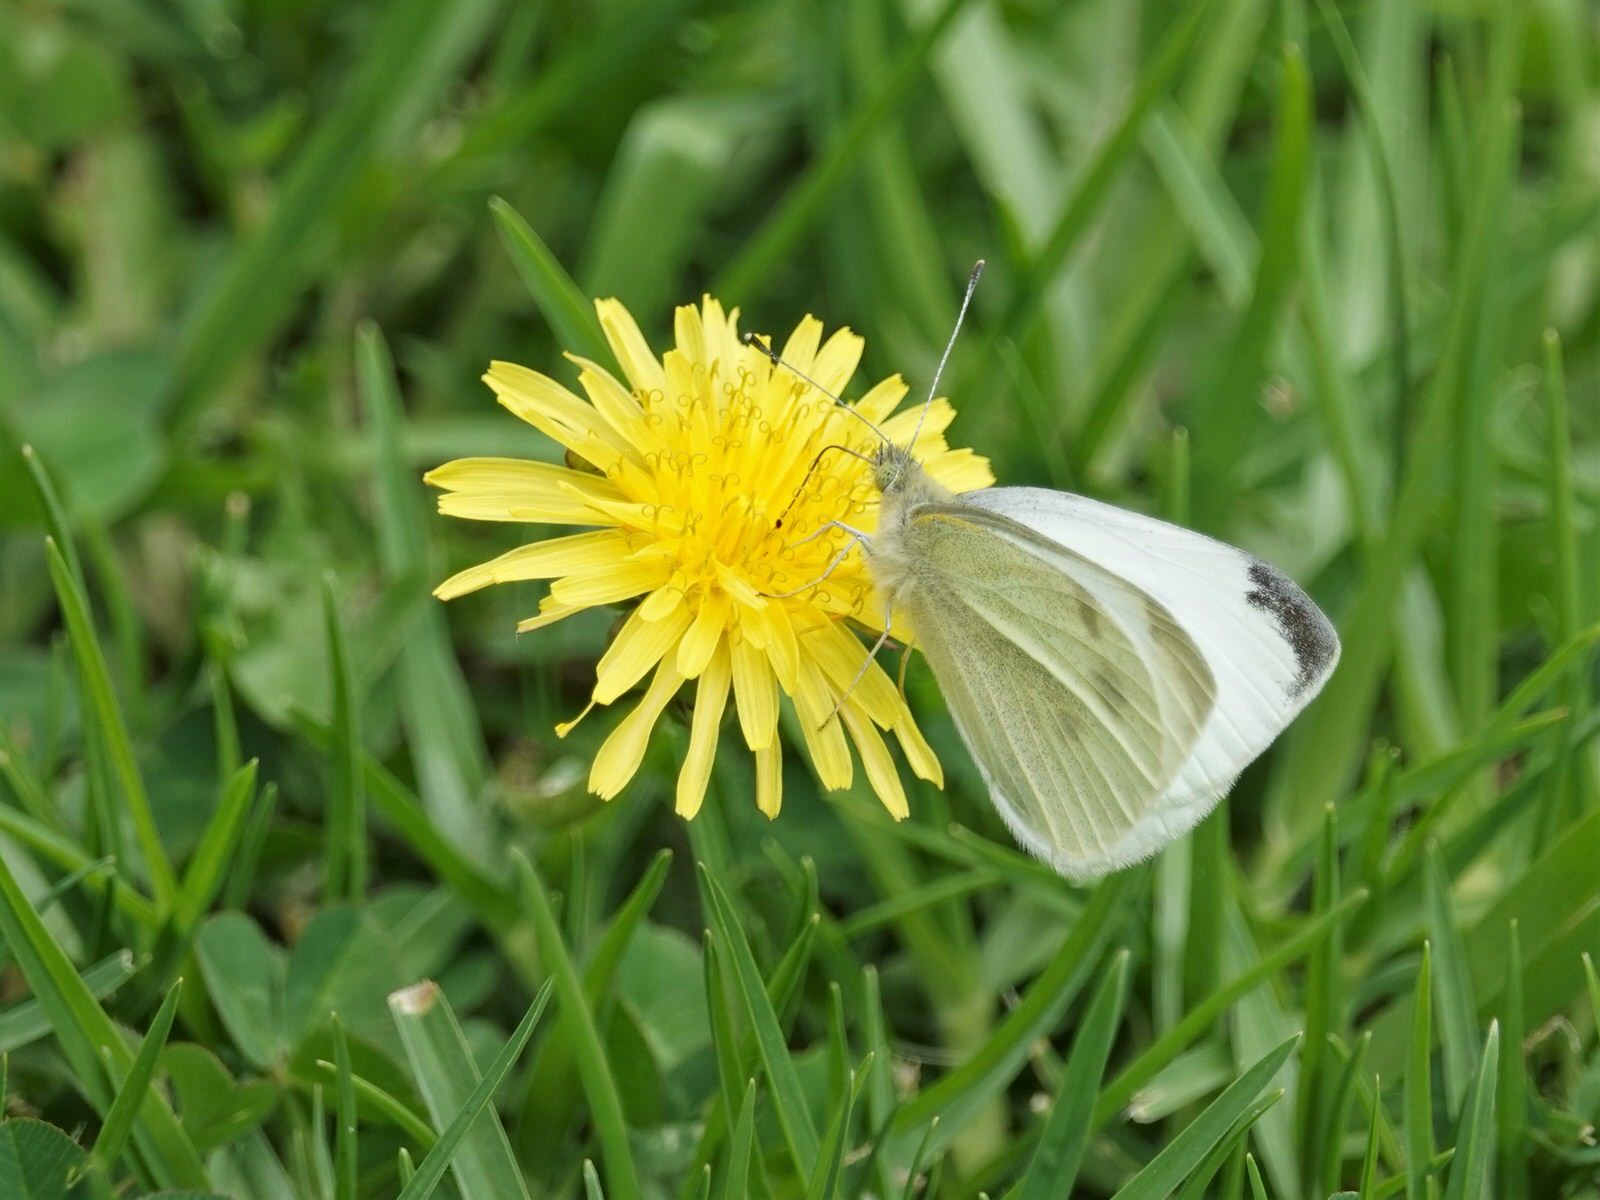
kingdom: Animalia
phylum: Arthropoda
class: Insecta
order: Lepidoptera
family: Pieridae
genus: Pieris
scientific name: Pieris rapae
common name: Small white
